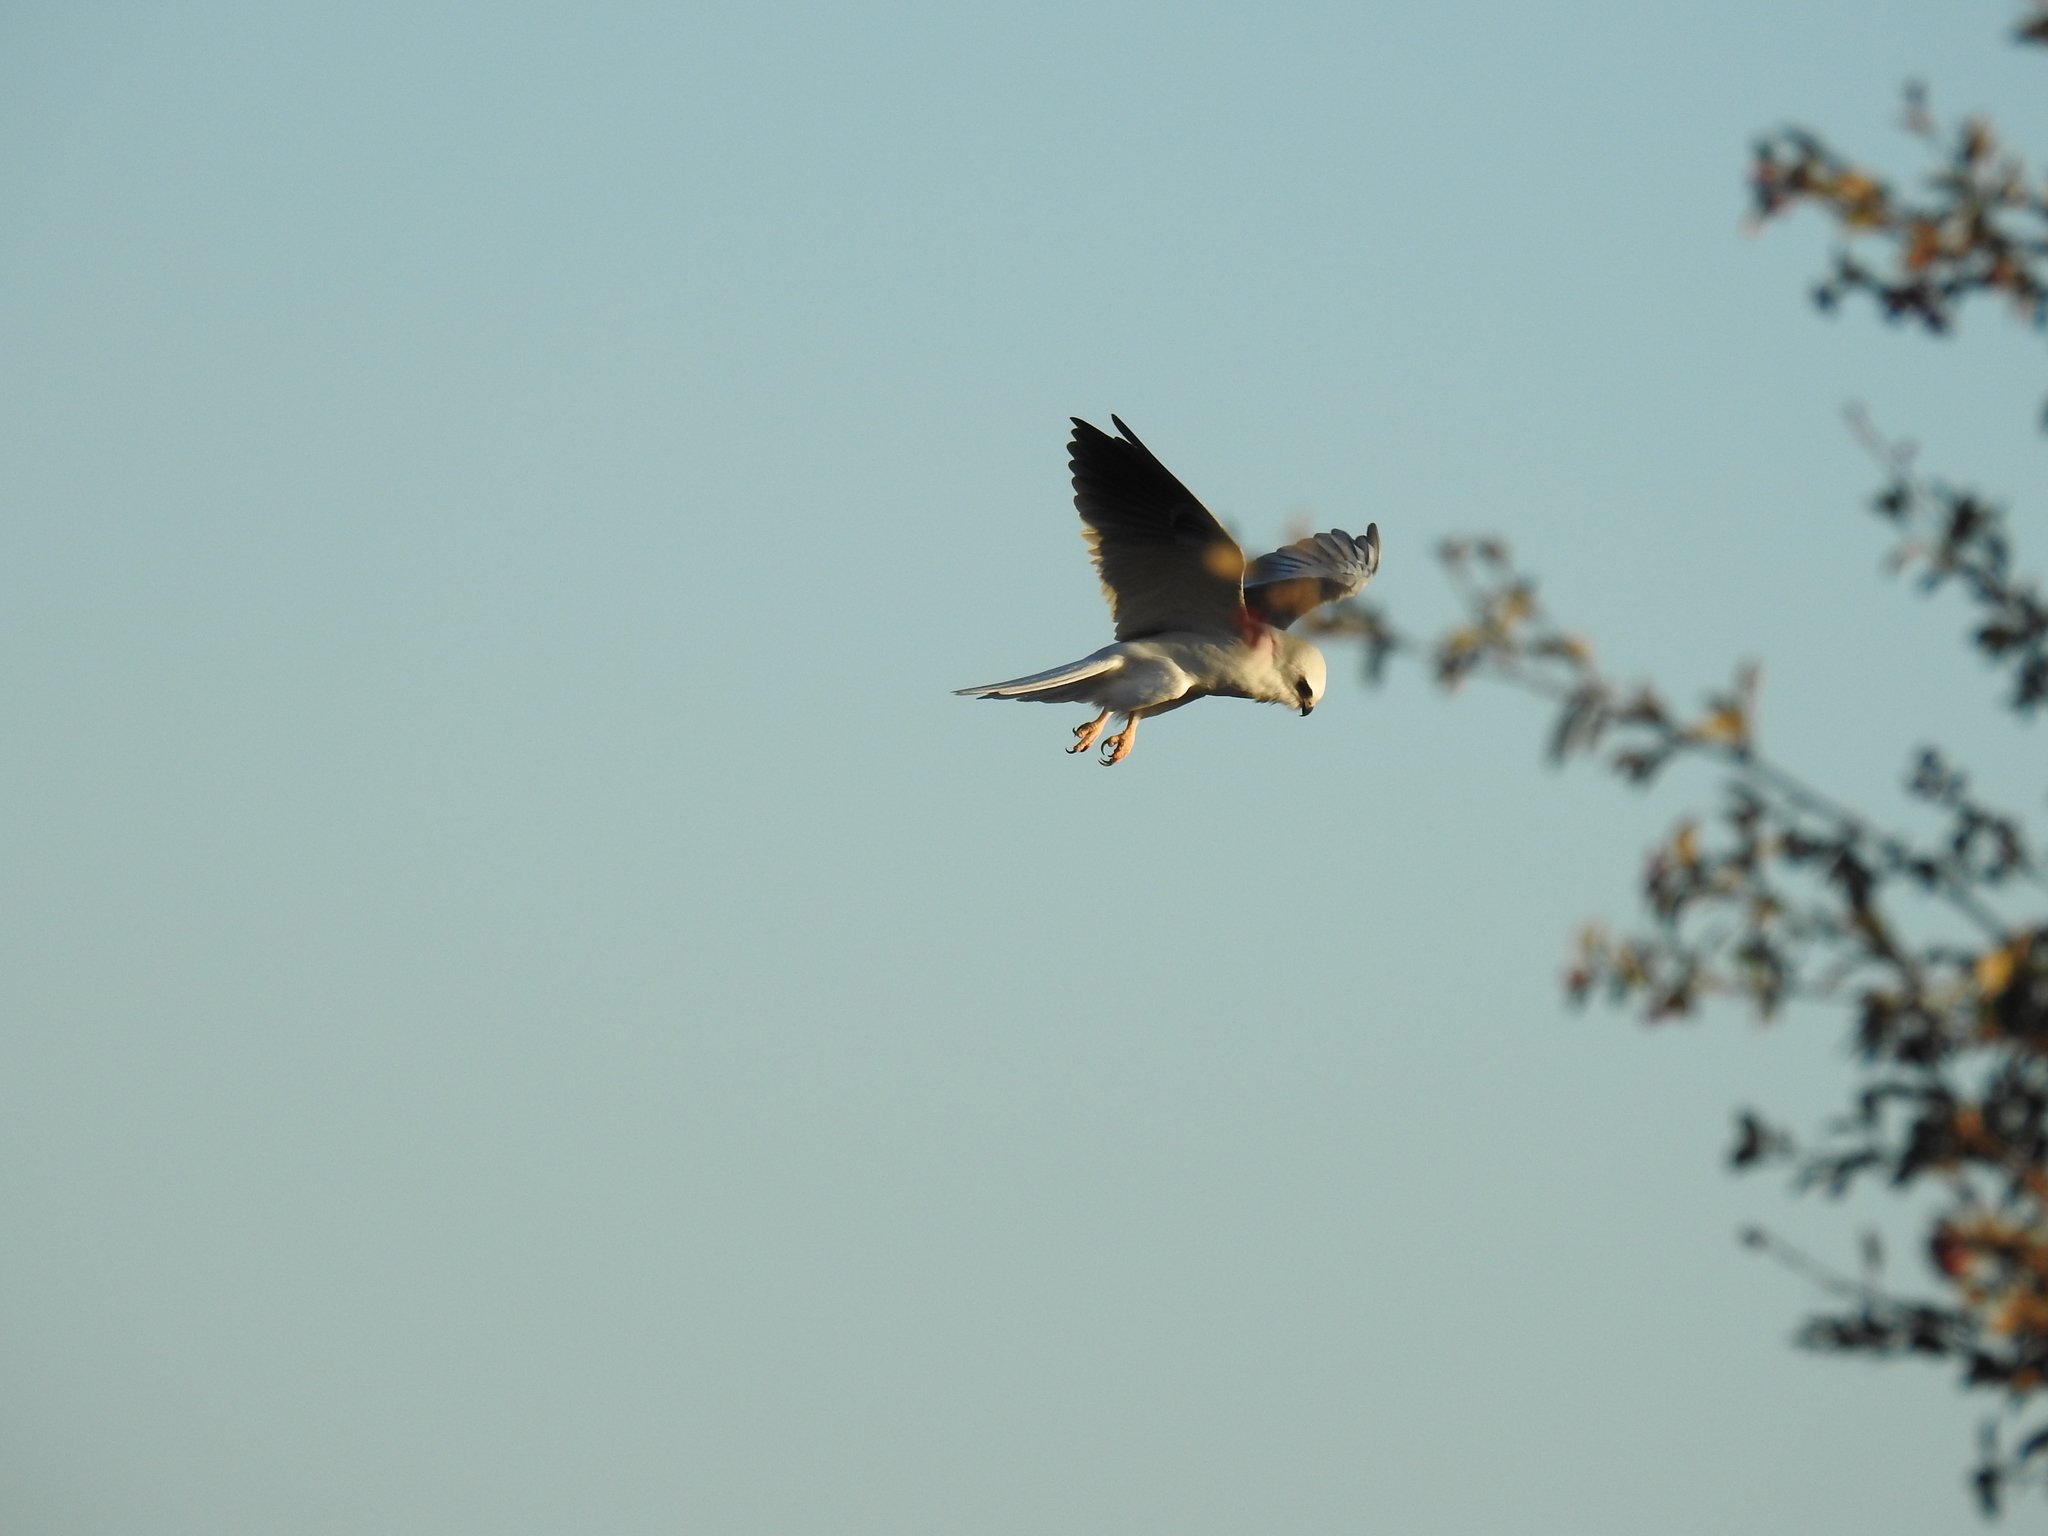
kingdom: Animalia
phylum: Chordata
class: Aves
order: Accipitriformes
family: Accipitridae
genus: Elanus
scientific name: Elanus leucurus
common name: White-tailed kite
